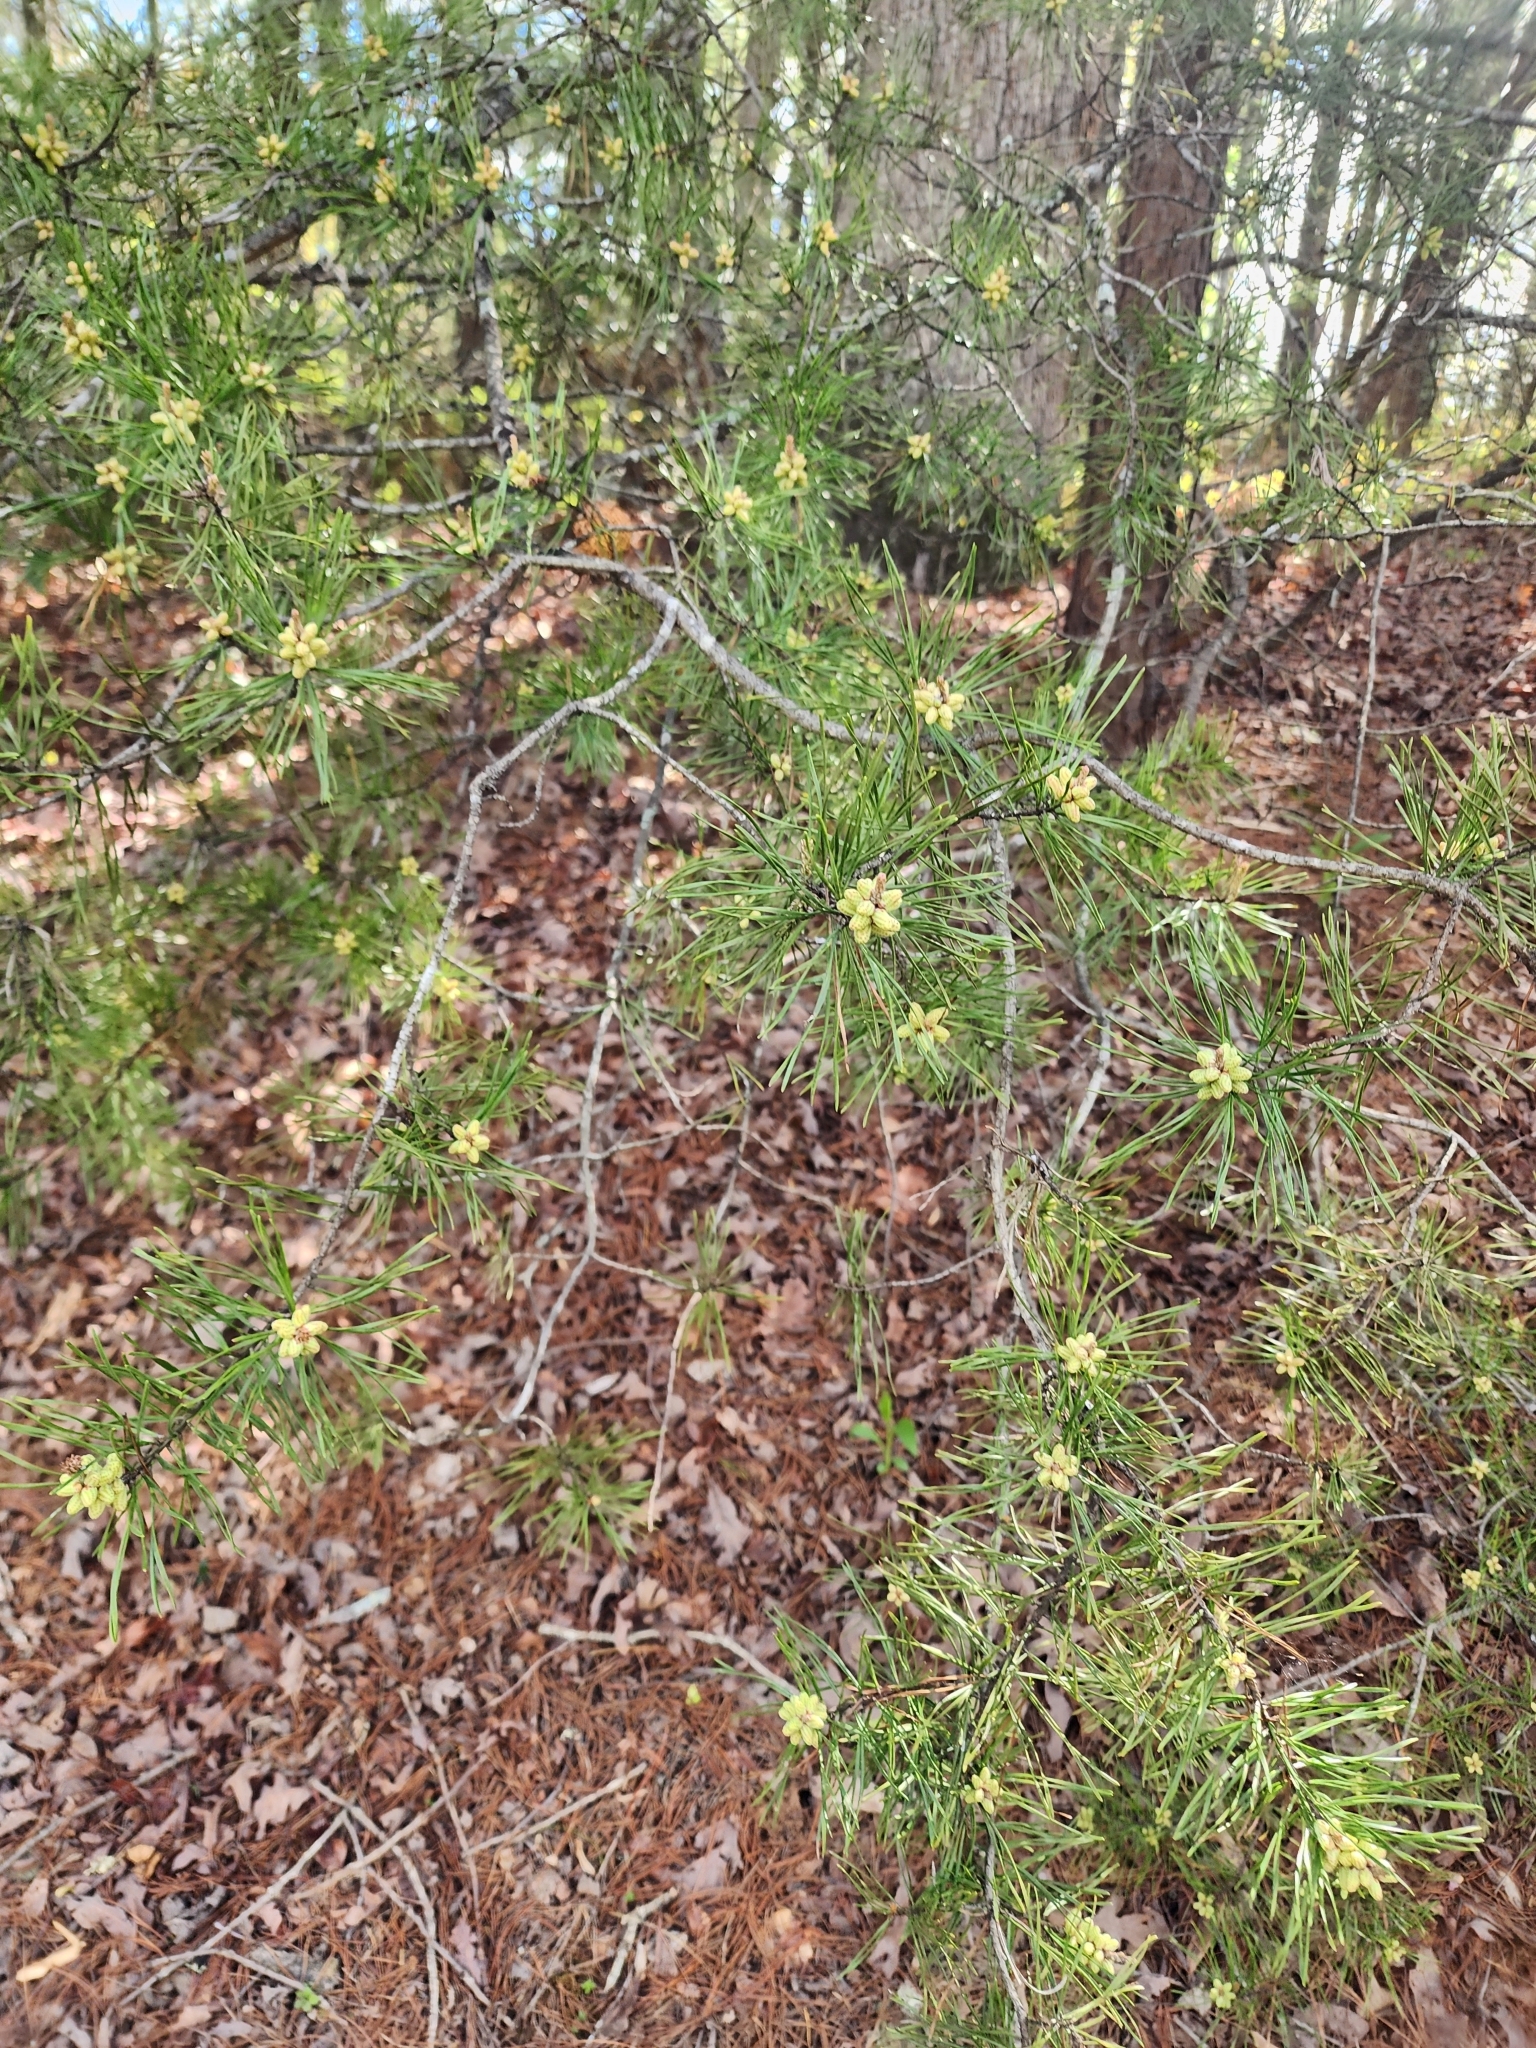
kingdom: Plantae
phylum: Tracheophyta
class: Pinopsida
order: Pinales
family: Pinaceae
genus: Pinus
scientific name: Pinus virginiana
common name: Scrub pine
